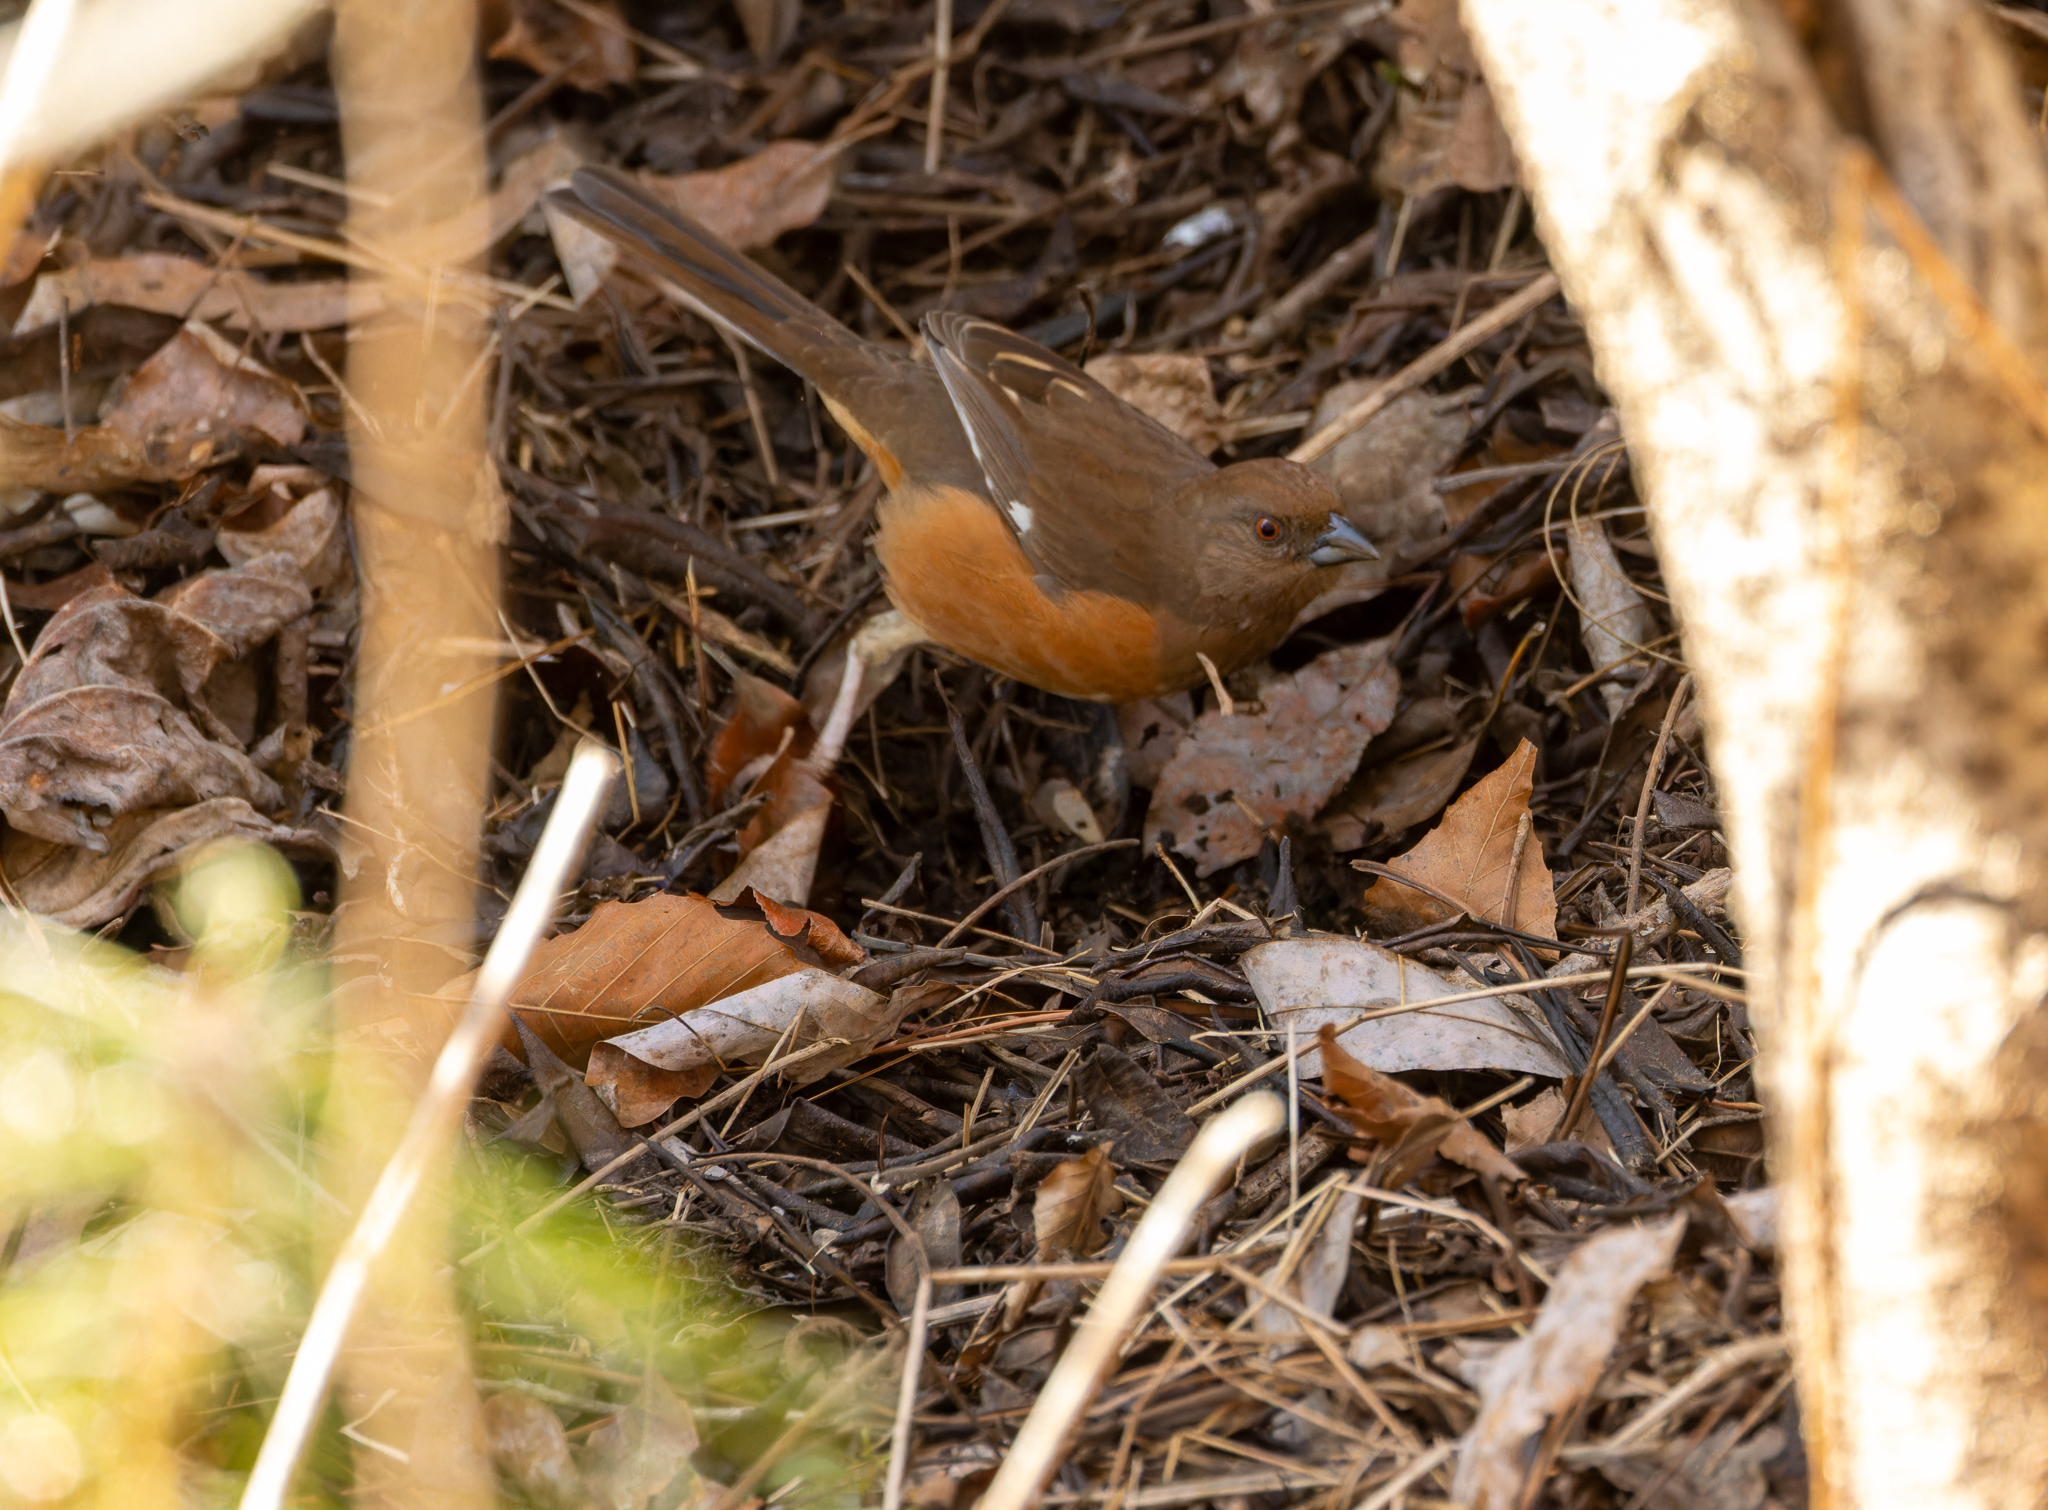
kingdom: Animalia
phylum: Chordata
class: Aves
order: Passeriformes
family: Passerellidae
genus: Pipilo
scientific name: Pipilo erythrophthalmus
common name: Eastern towhee
